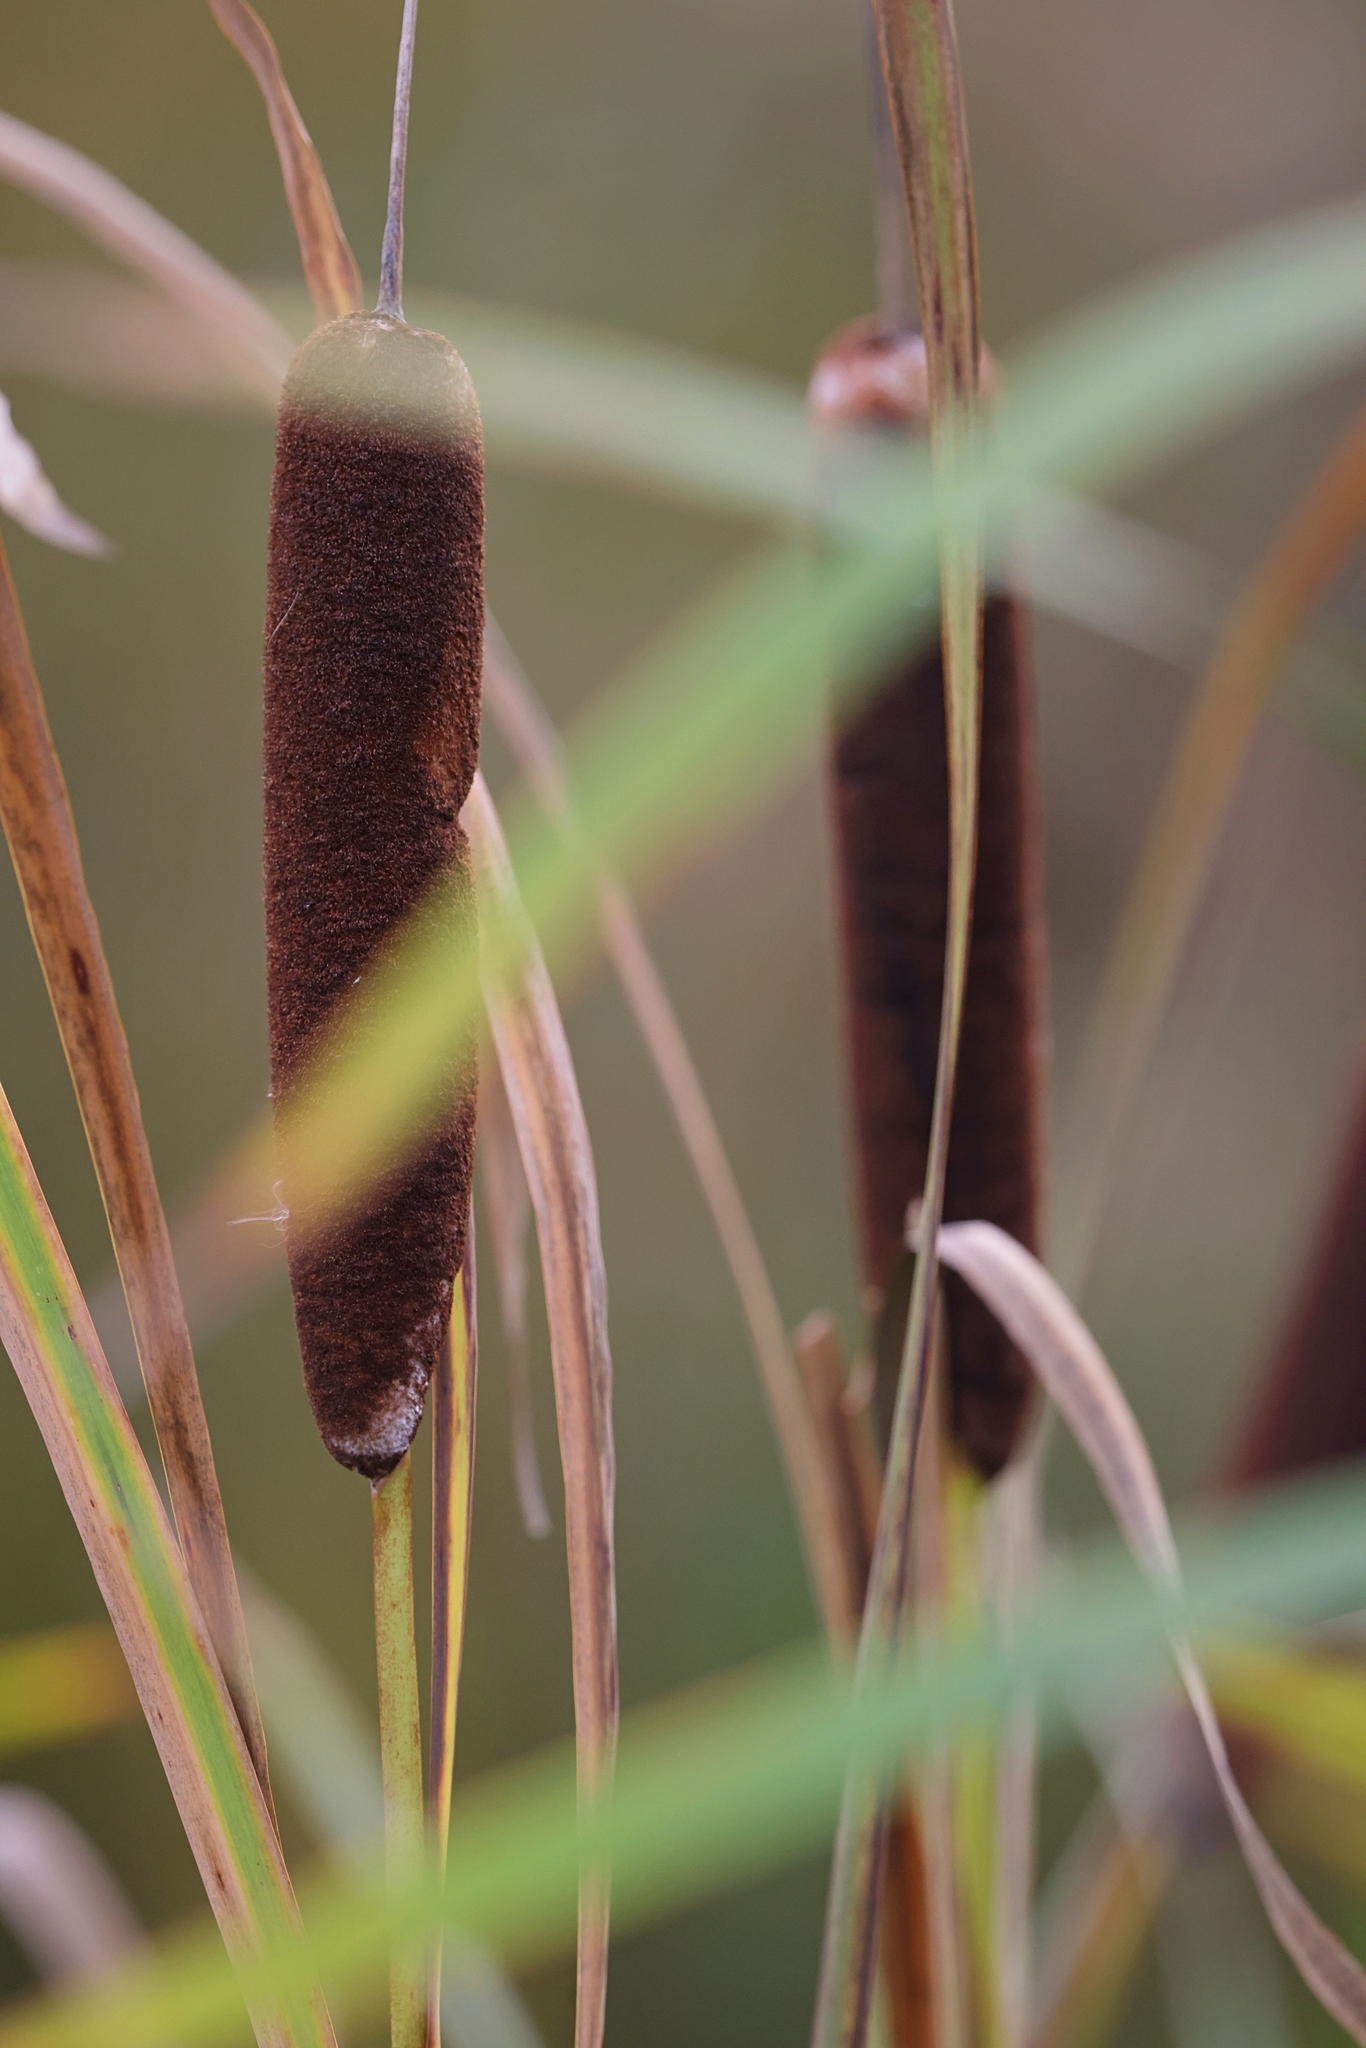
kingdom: Plantae
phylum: Tracheophyta
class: Liliopsida
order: Poales
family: Typhaceae
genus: Typha
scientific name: Typha latifolia
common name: Broadleaf cattail
